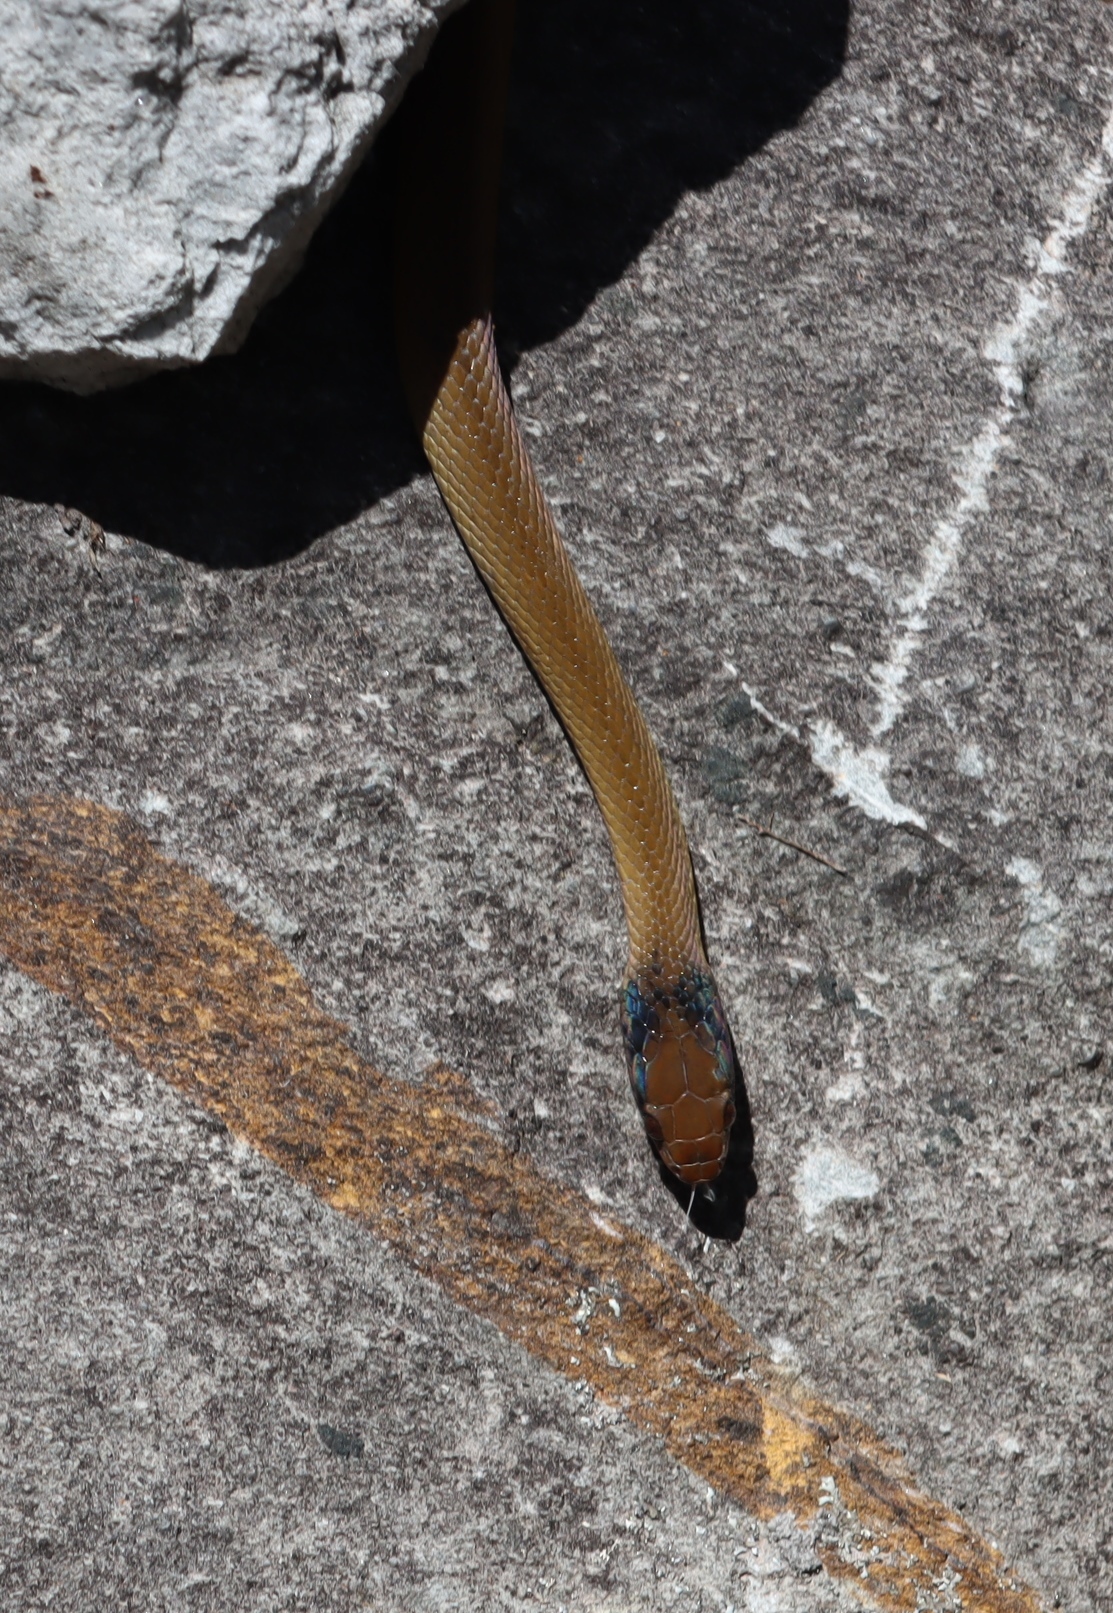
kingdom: Animalia
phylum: Chordata
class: Squamata
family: Colubridae
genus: Crotaphopeltis
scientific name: Crotaphopeltis hotamboeia
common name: Red-lipped snake
